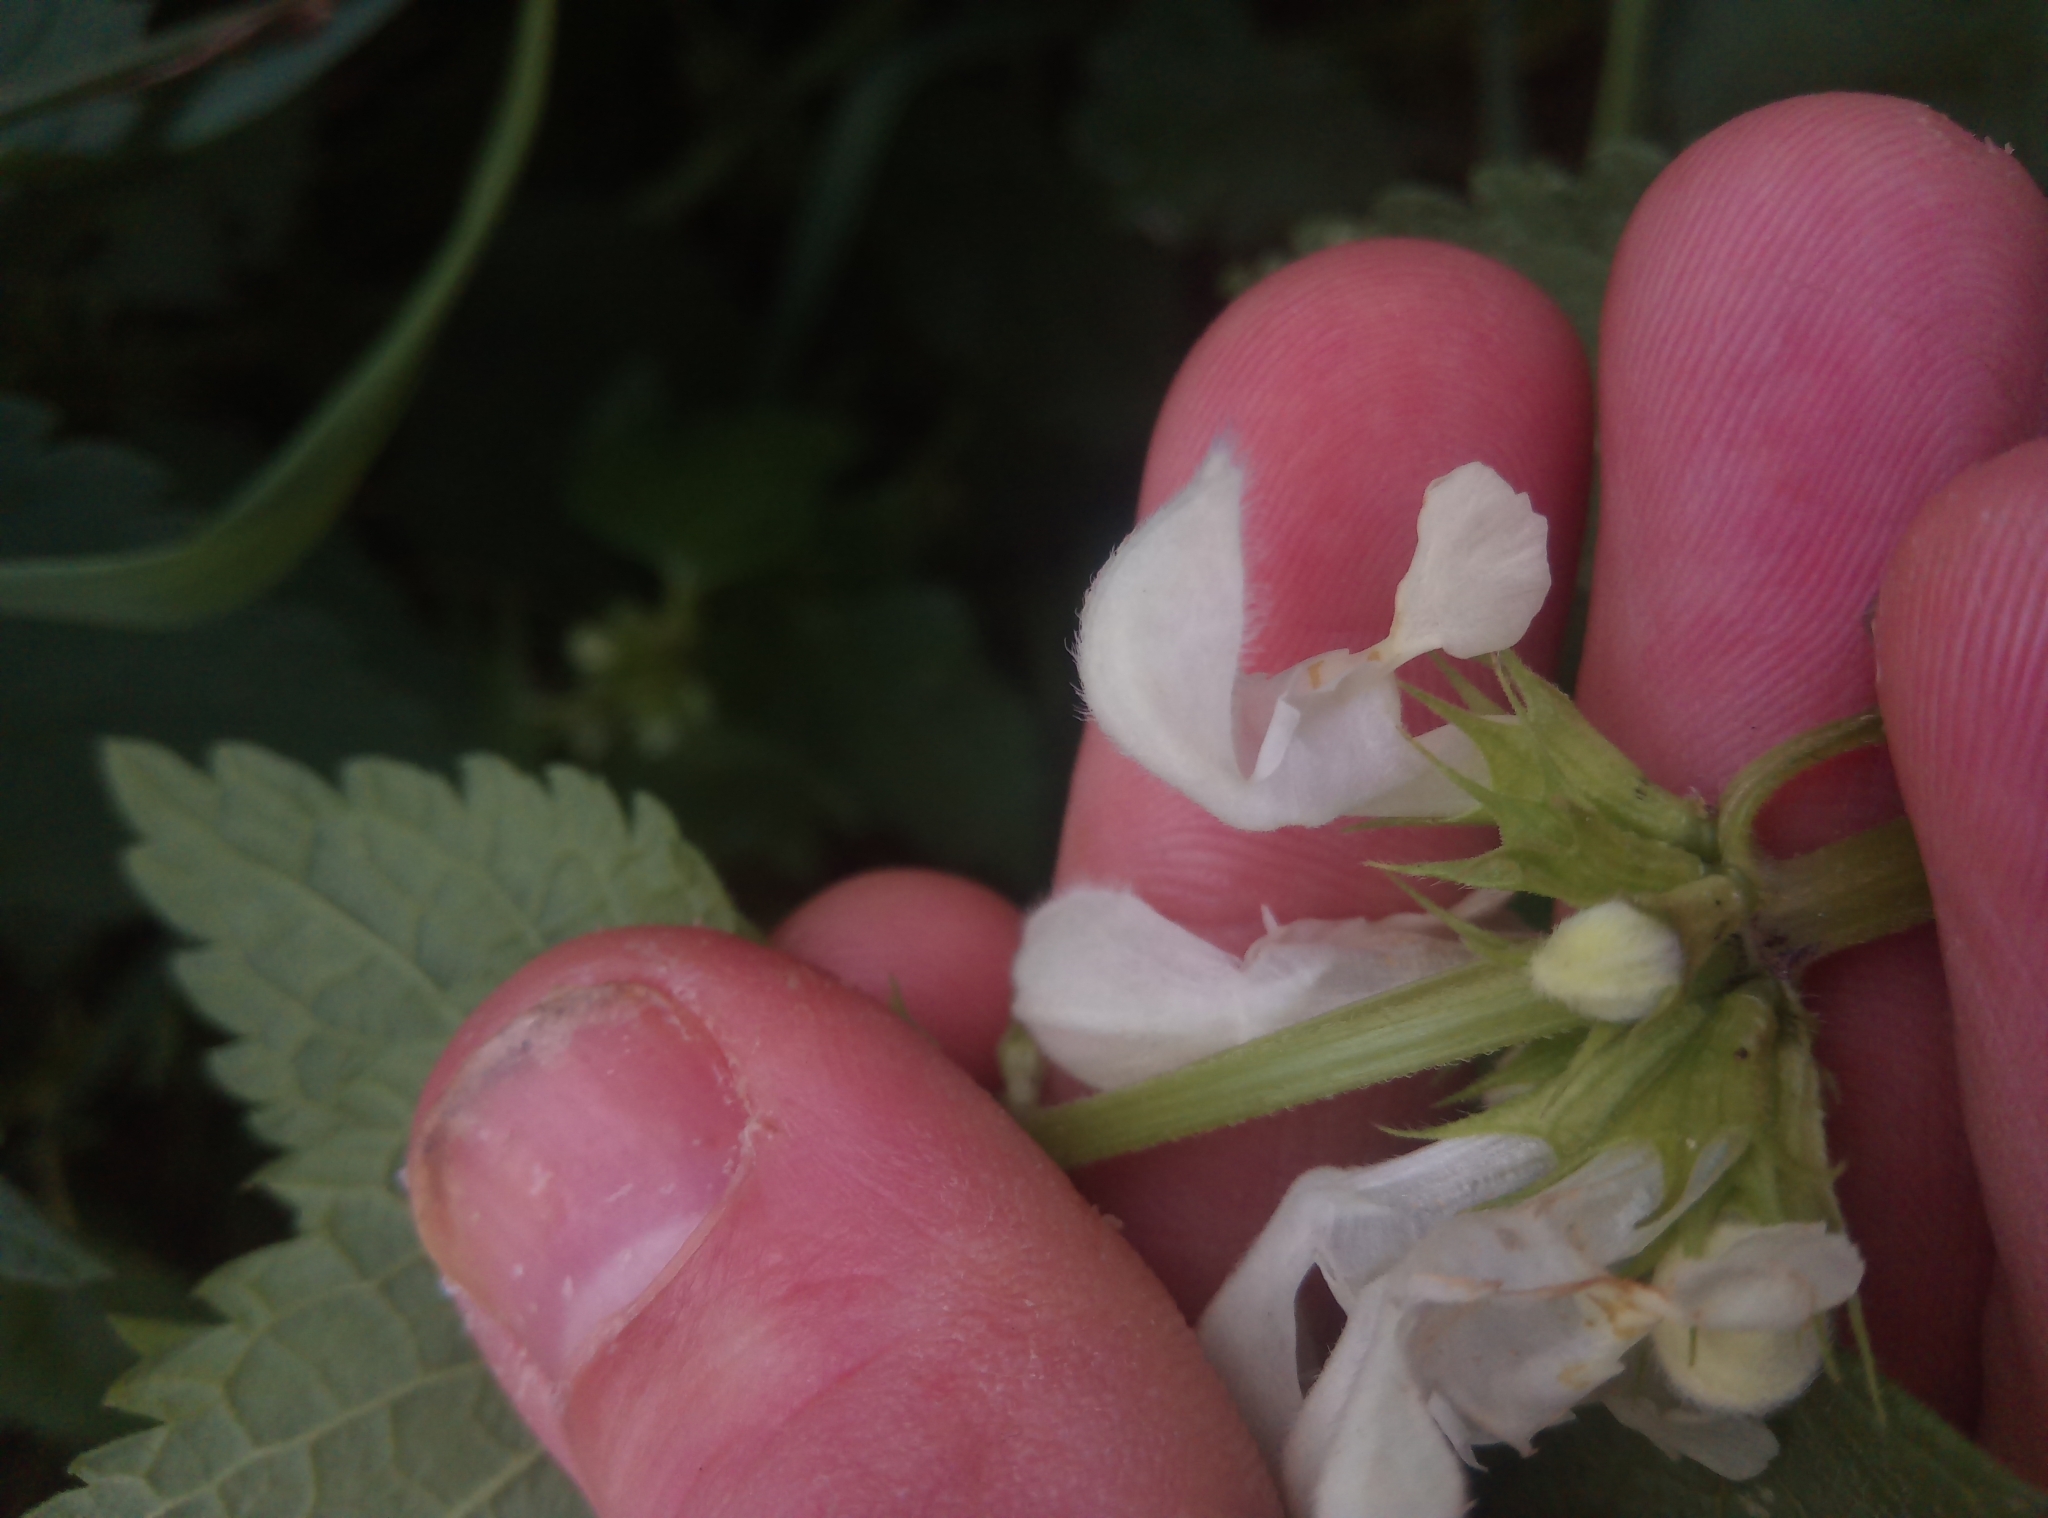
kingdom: Plantae
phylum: Tracheophyta
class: Magnoliopsida
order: Lamiales
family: Lamiaceae
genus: Lamium
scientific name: Lamium album
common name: White dead-nettle
